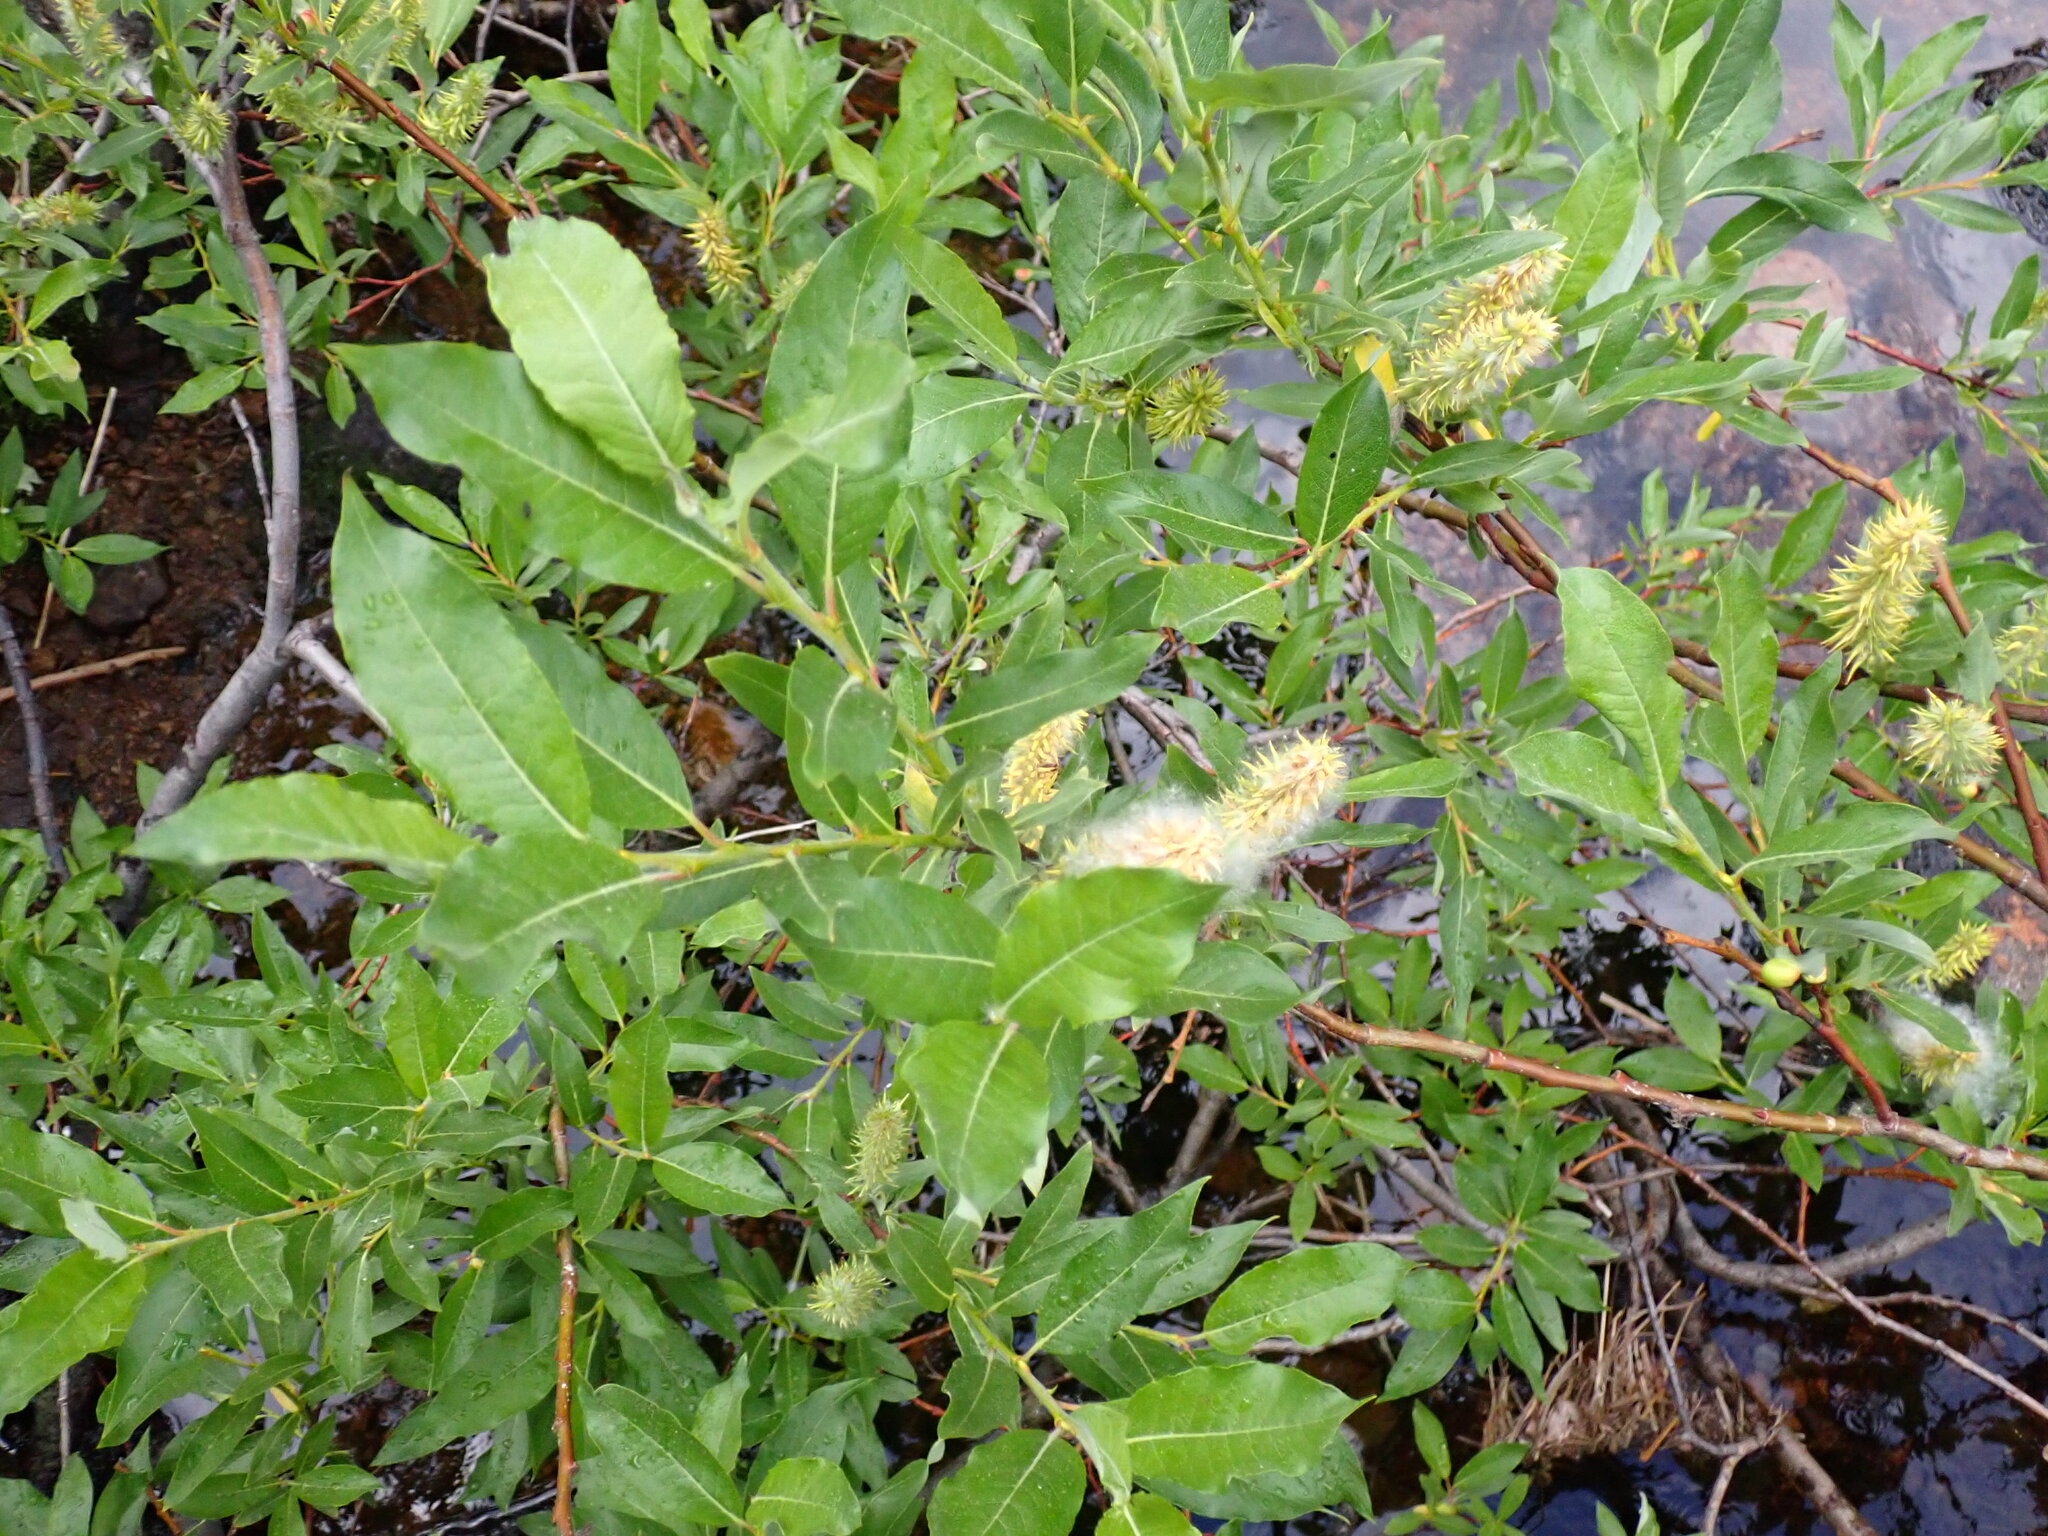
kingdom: Plantae
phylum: Tracheophyta
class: Magnoliopsida
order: Malpighiales
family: Salicaceae
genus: Salix
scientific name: Salix barclayi
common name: Mountain willow
